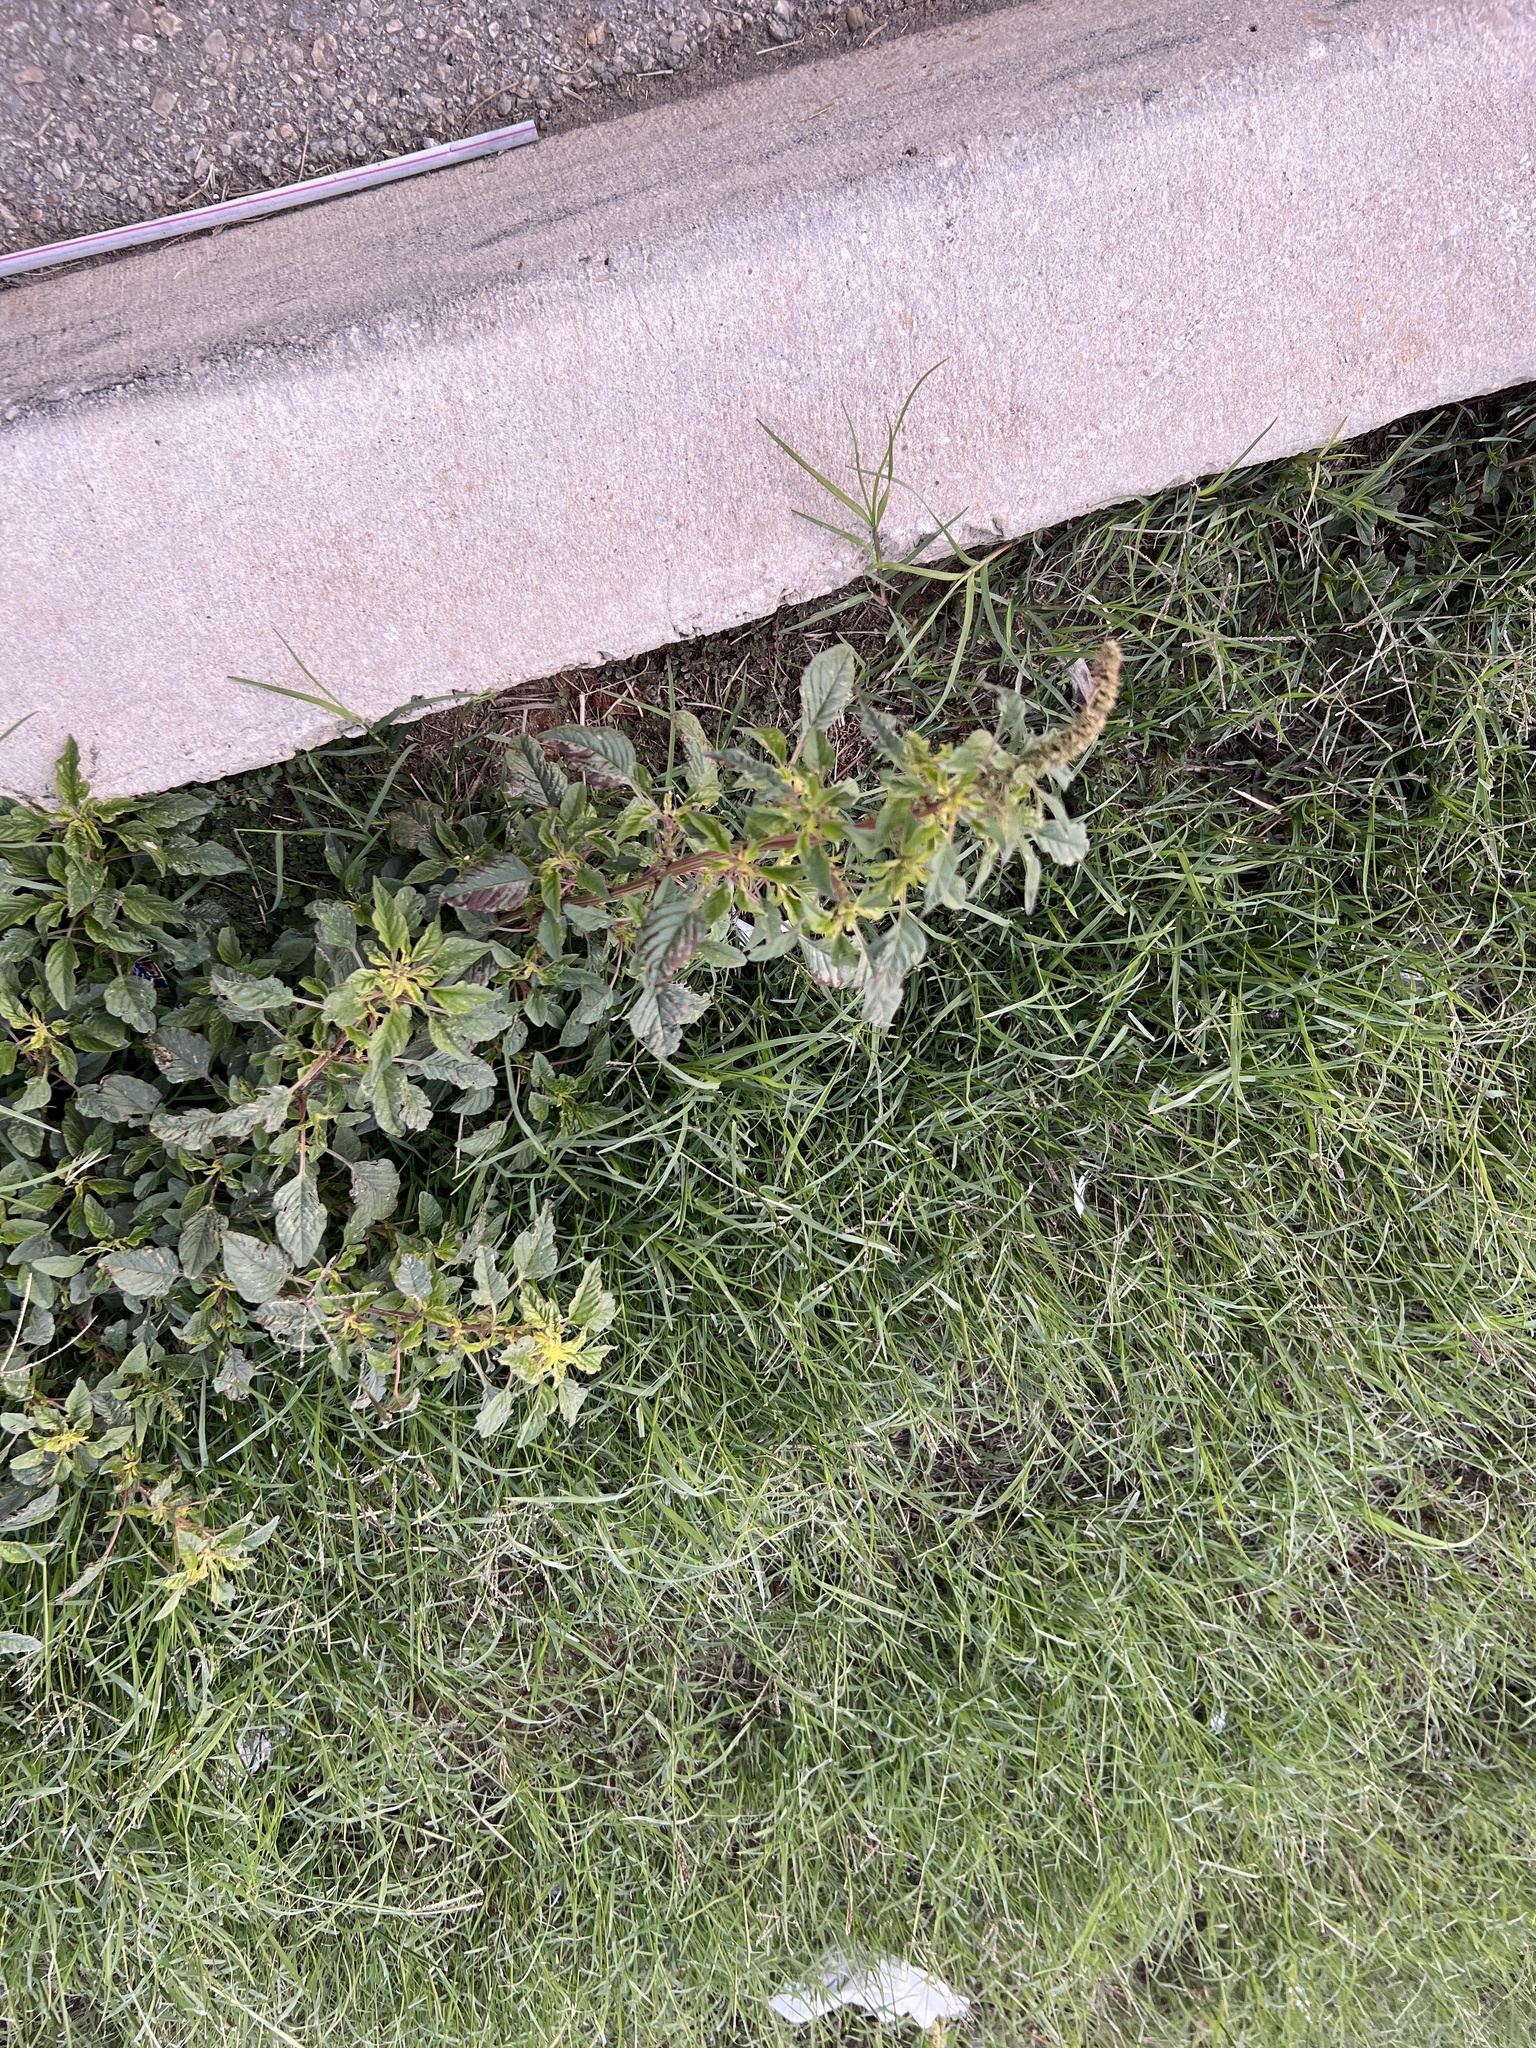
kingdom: Plantae
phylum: Tracheophyta
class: Magnoliopsida
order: Caryophyllales
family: Amaranthaceae
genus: Amaranthus
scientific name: Amaranthus palmeri
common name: Dioecious amaranth
